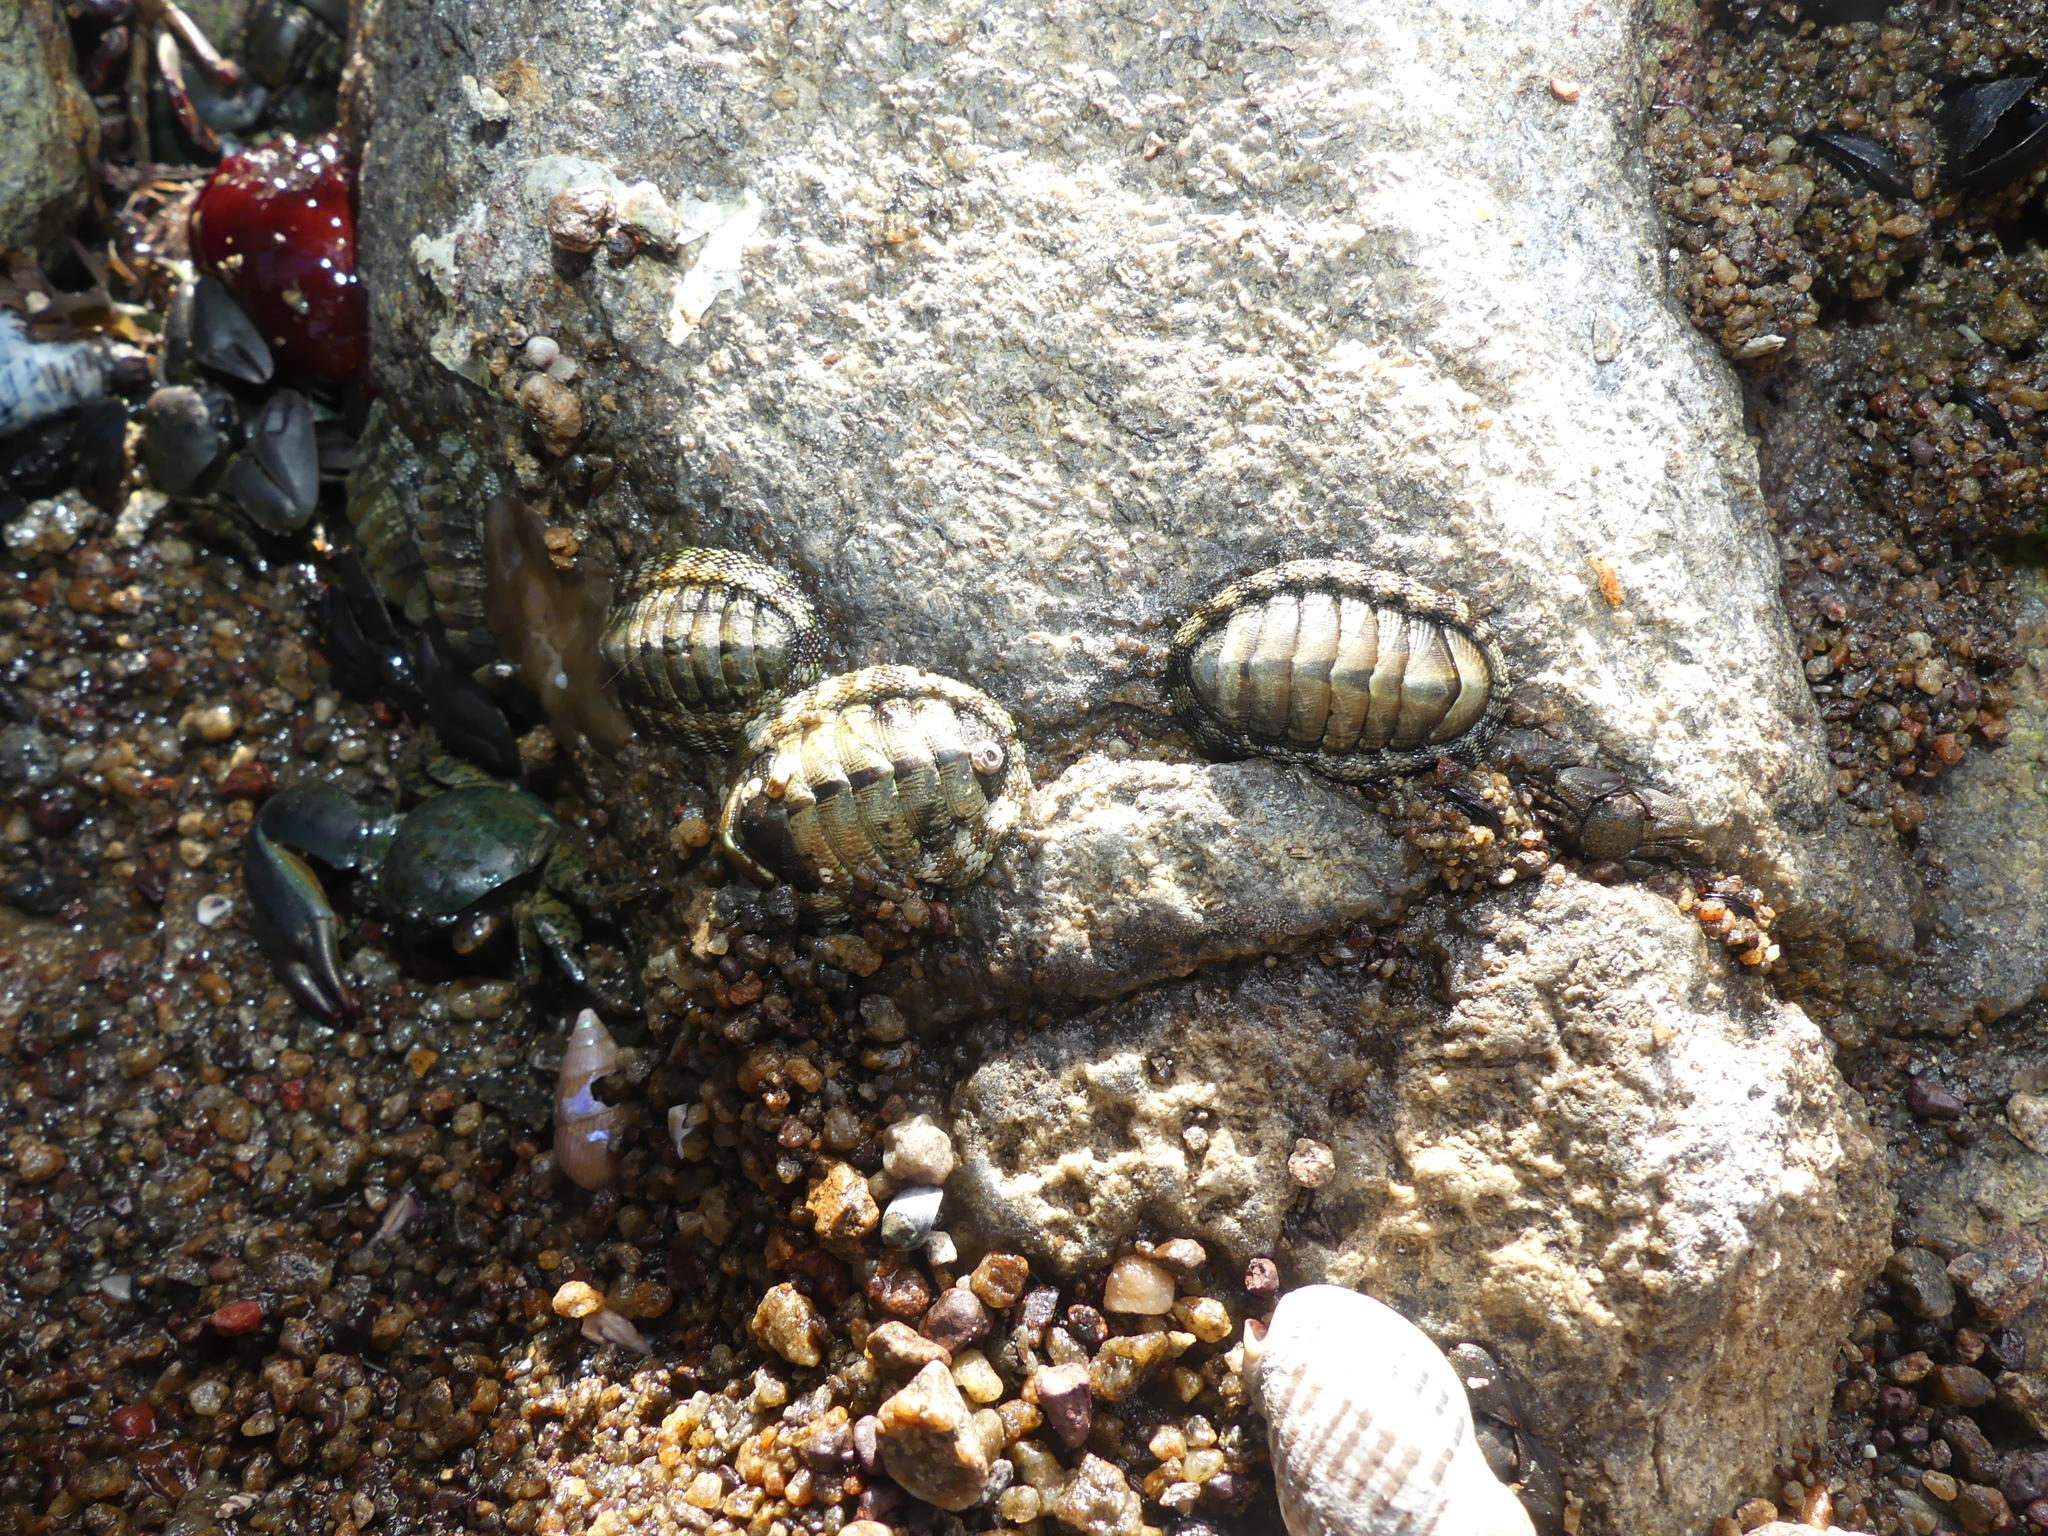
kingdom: Animalia
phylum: Mollusca
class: Polyplacophora
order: Chitonida
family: Chitonidae
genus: Sypharochiton
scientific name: Sypharochiton pelliserpentis
